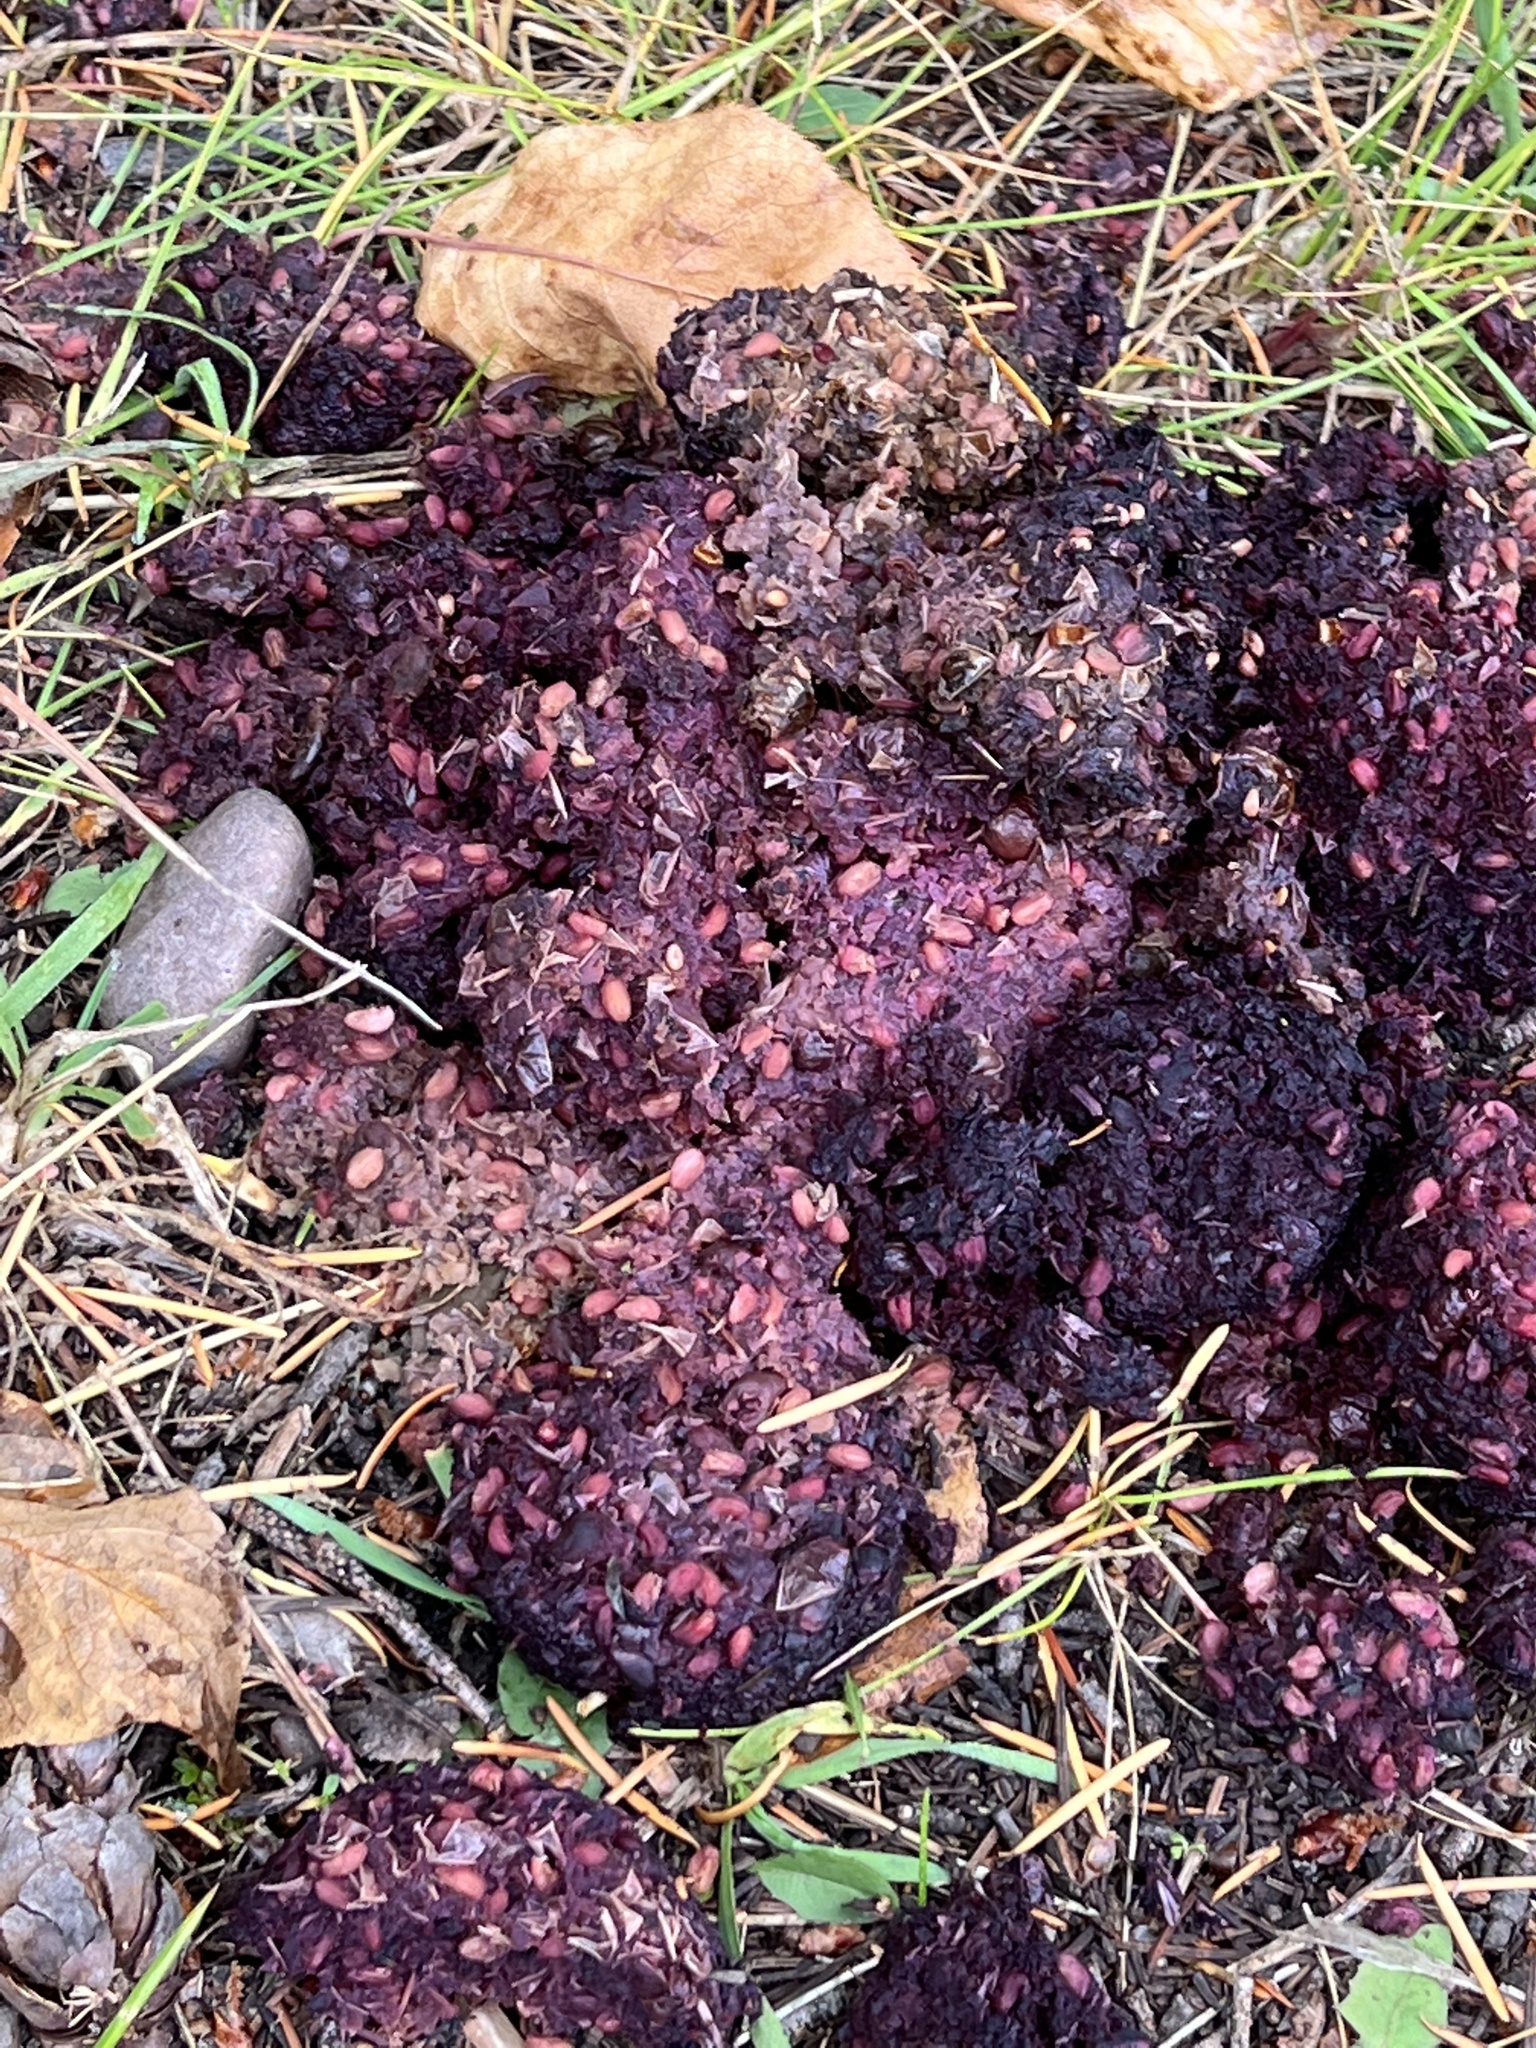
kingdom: Animalia
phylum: Chordata
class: Mammalia
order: Carnivora
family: Ursidae
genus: Ursus
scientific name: Ursus americanus
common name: American black bear
